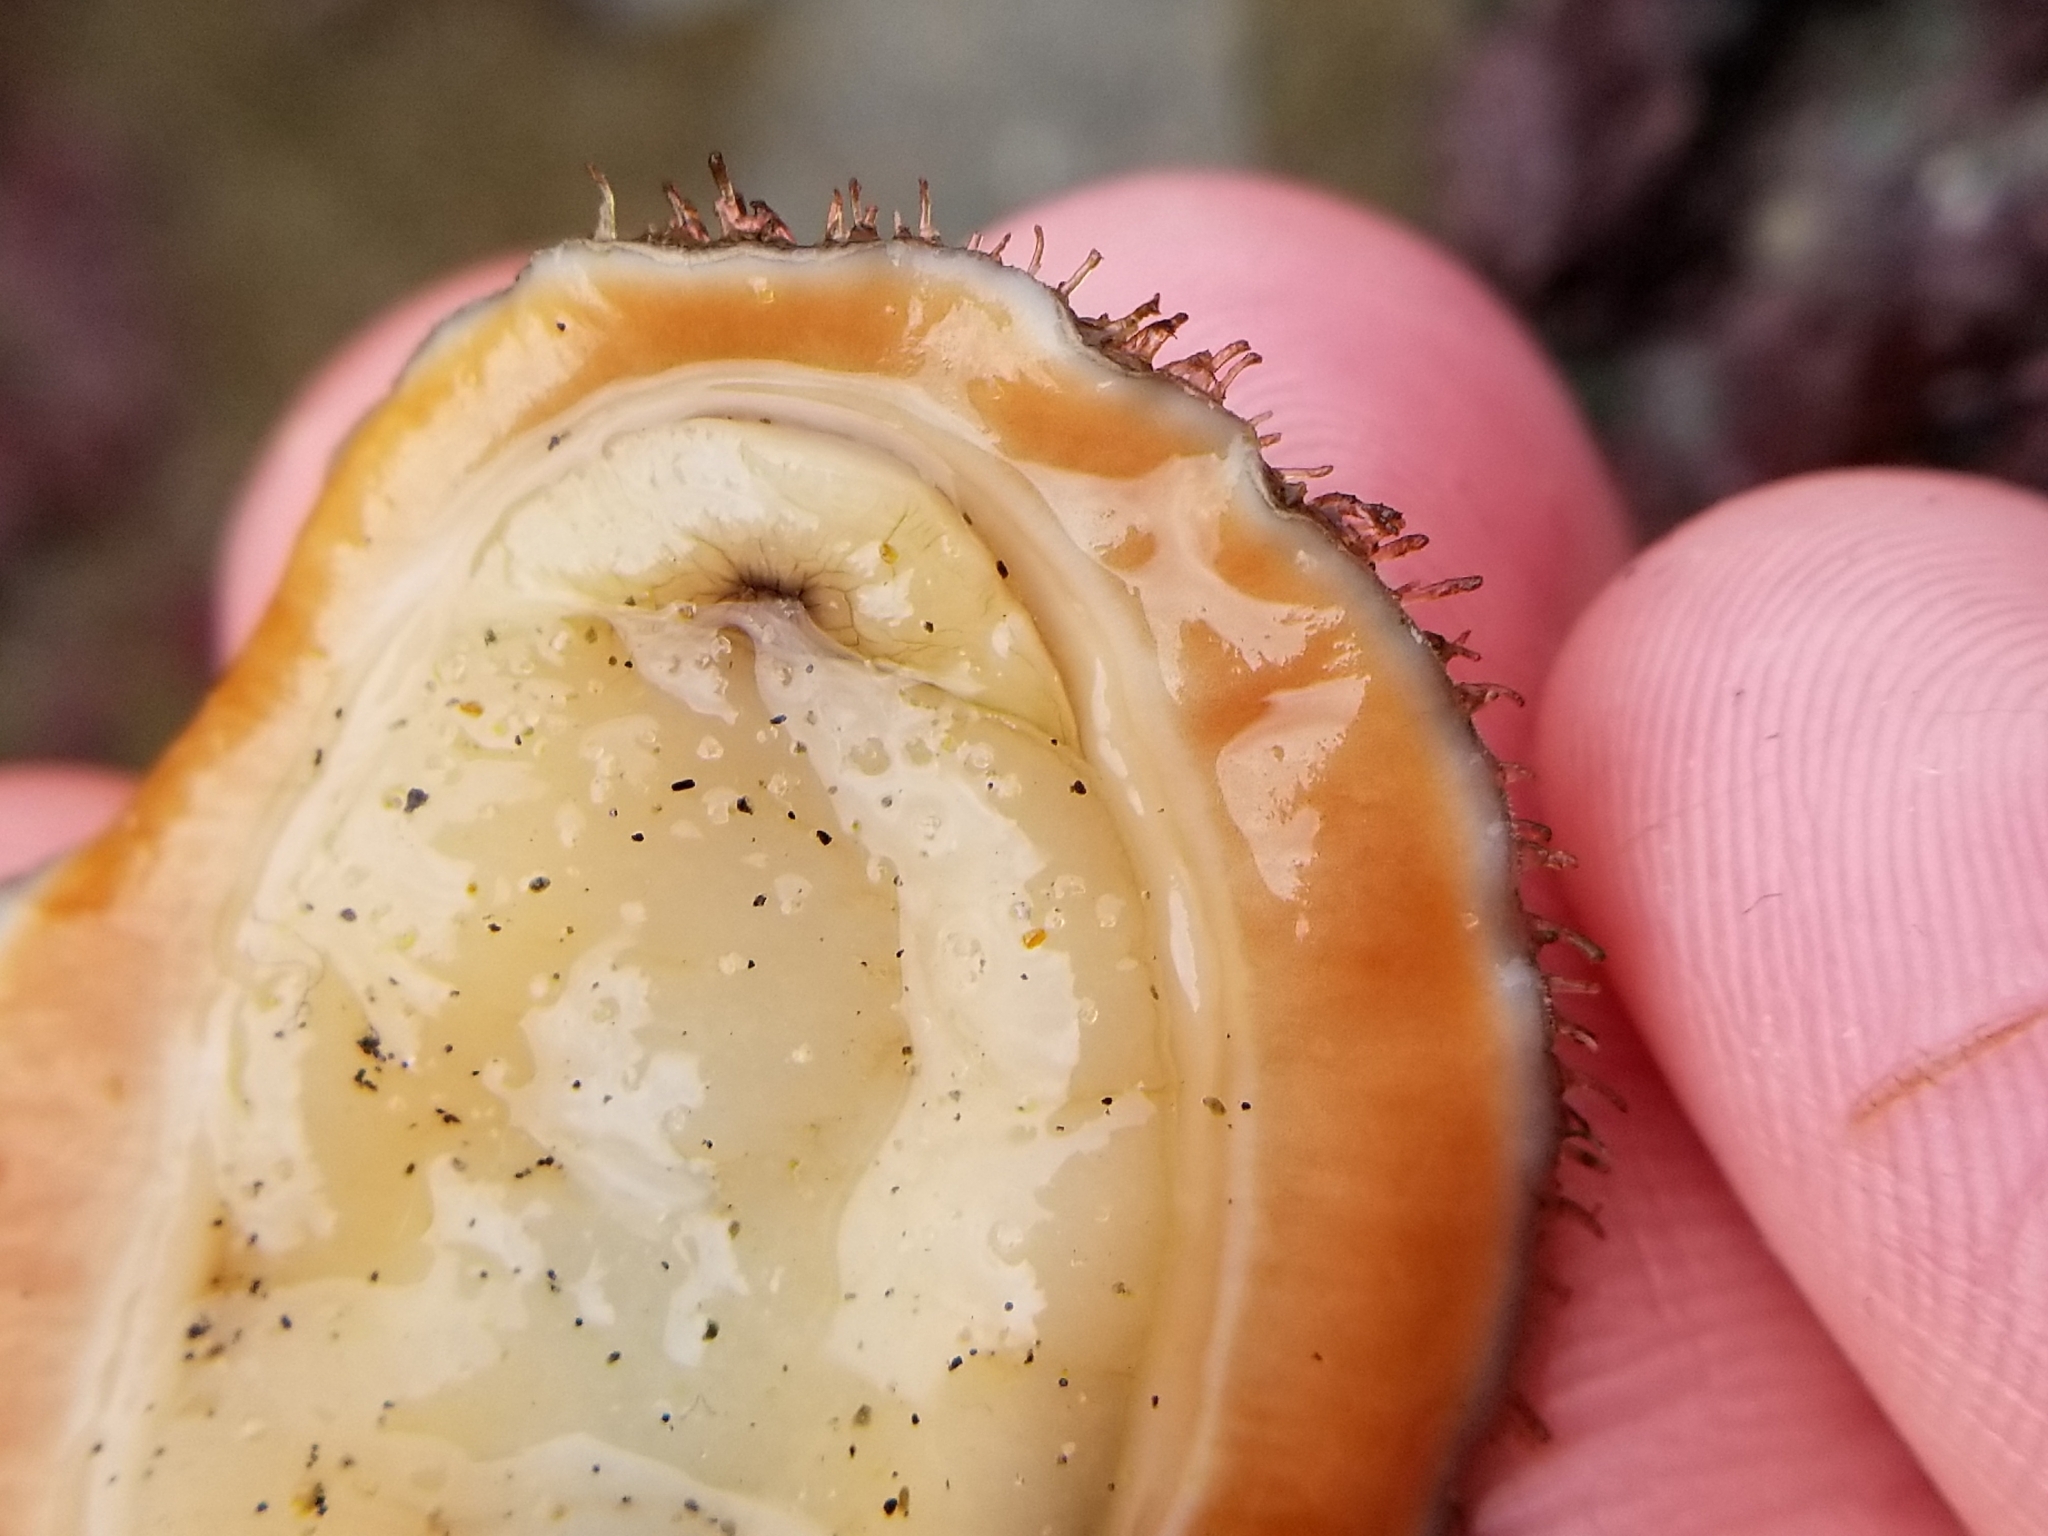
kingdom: Animalia
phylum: Mollusca
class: Polyplacophora
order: Chitonida
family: Mopaliidae
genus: Mopalia
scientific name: Mopalia lignosa
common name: Woody chiton
